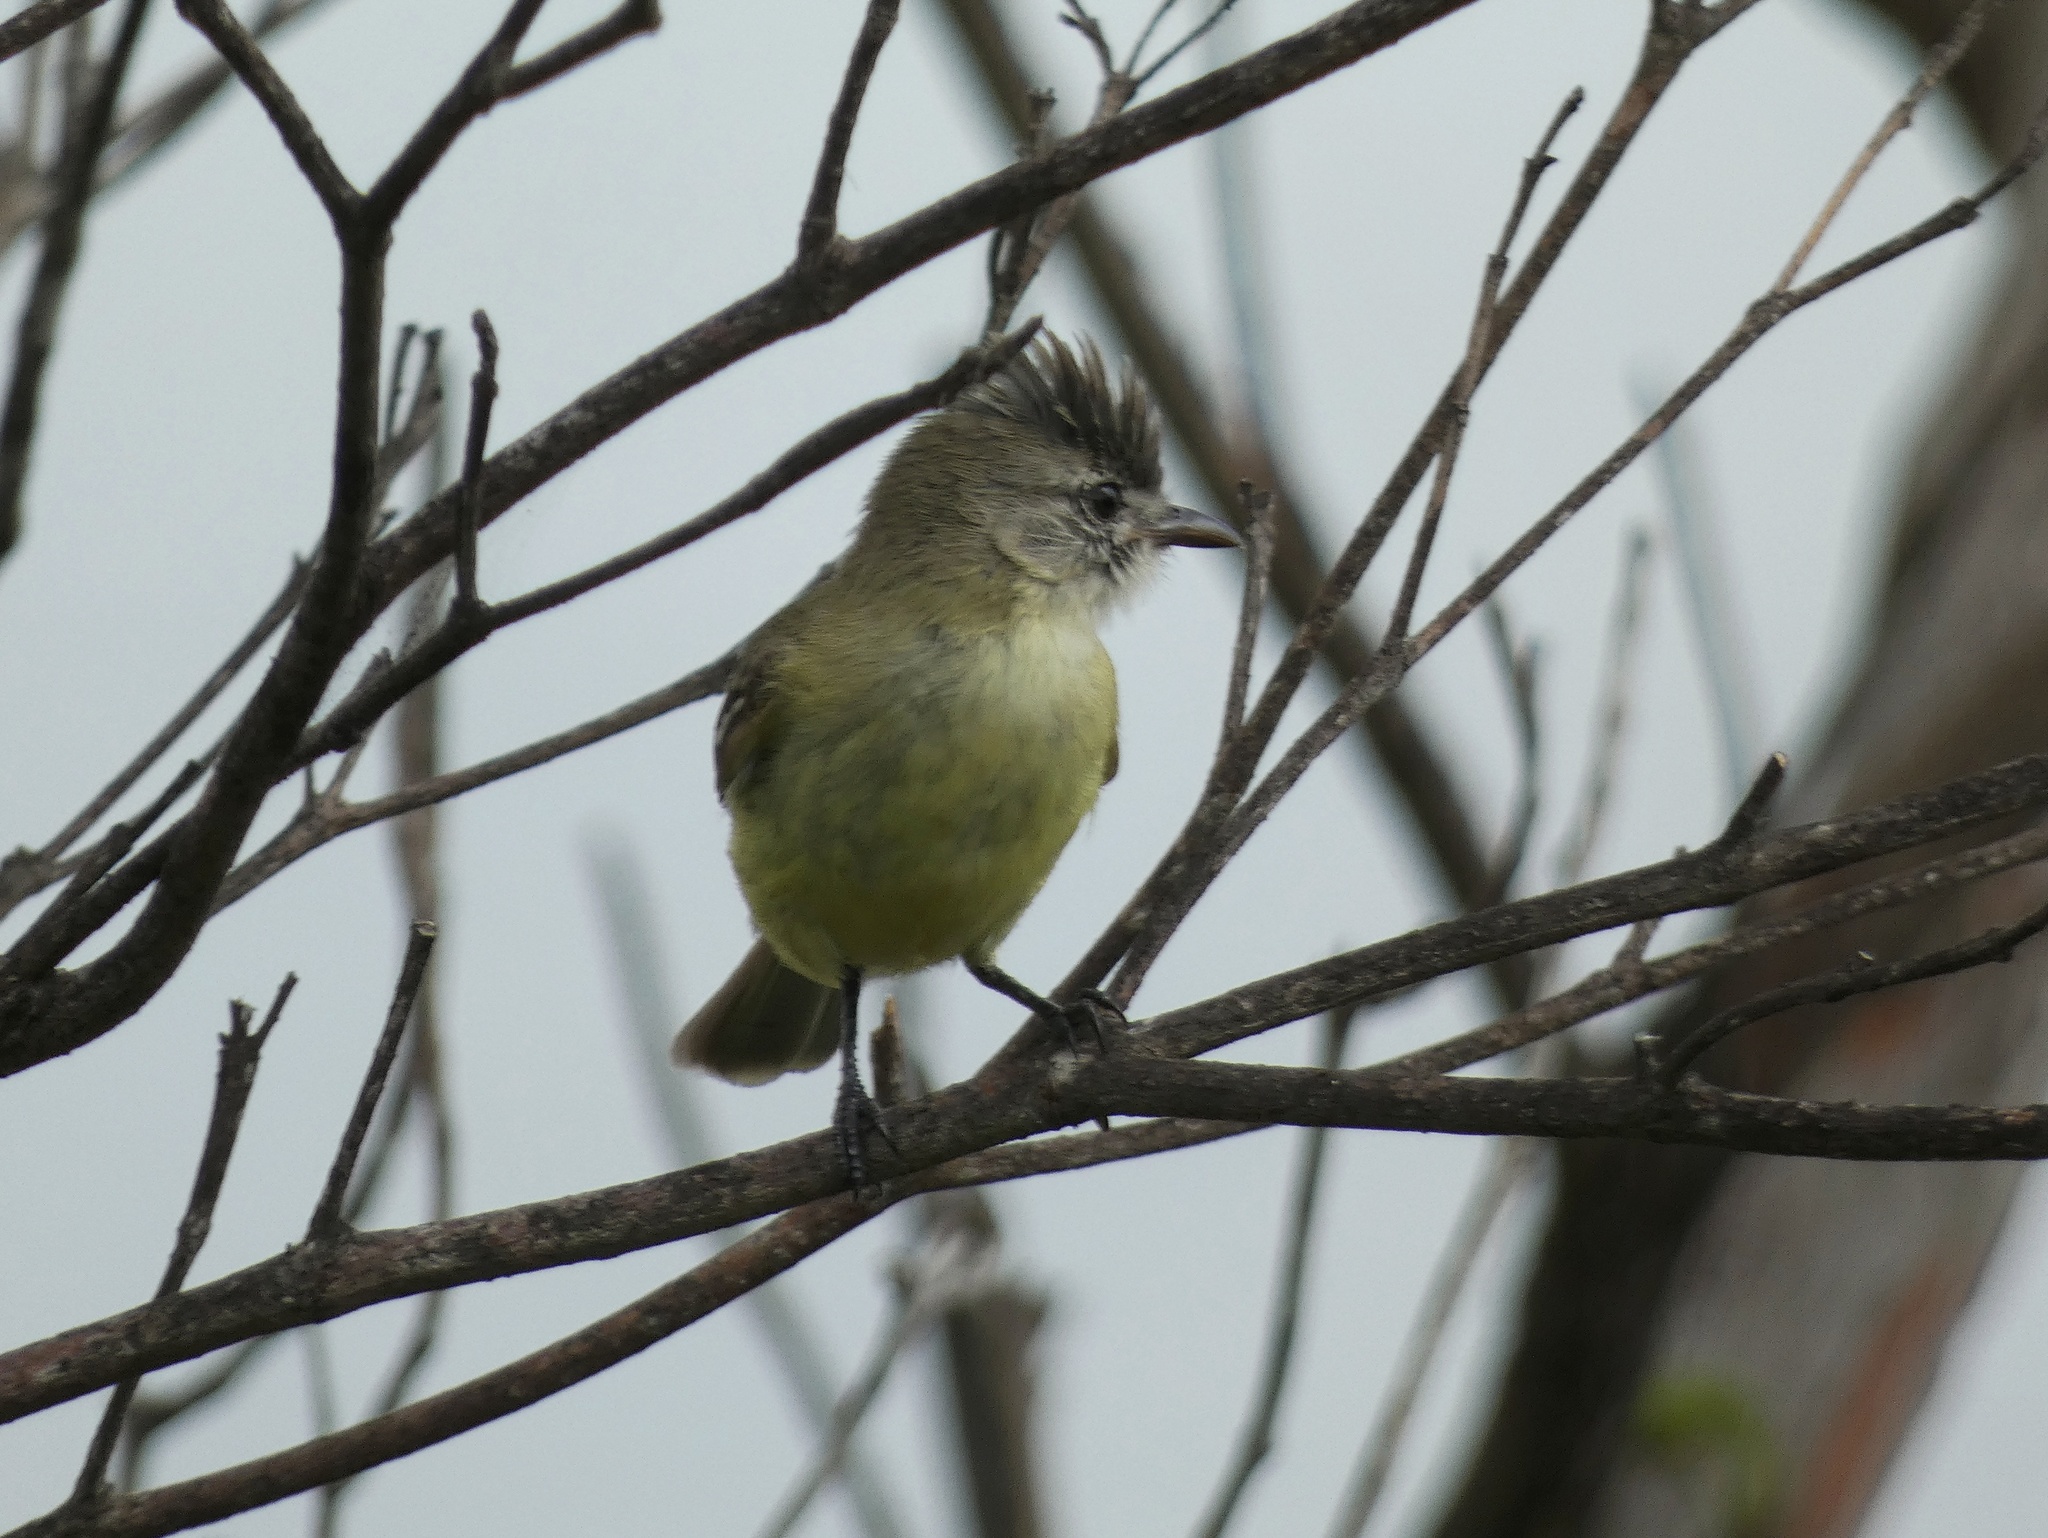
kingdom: Animalia
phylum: Chordata
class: Aves
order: Passeriformes
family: Tyrannidae
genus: Elaenia
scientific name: Elaenia flavogaster
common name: Yellow-bellied elaenia
